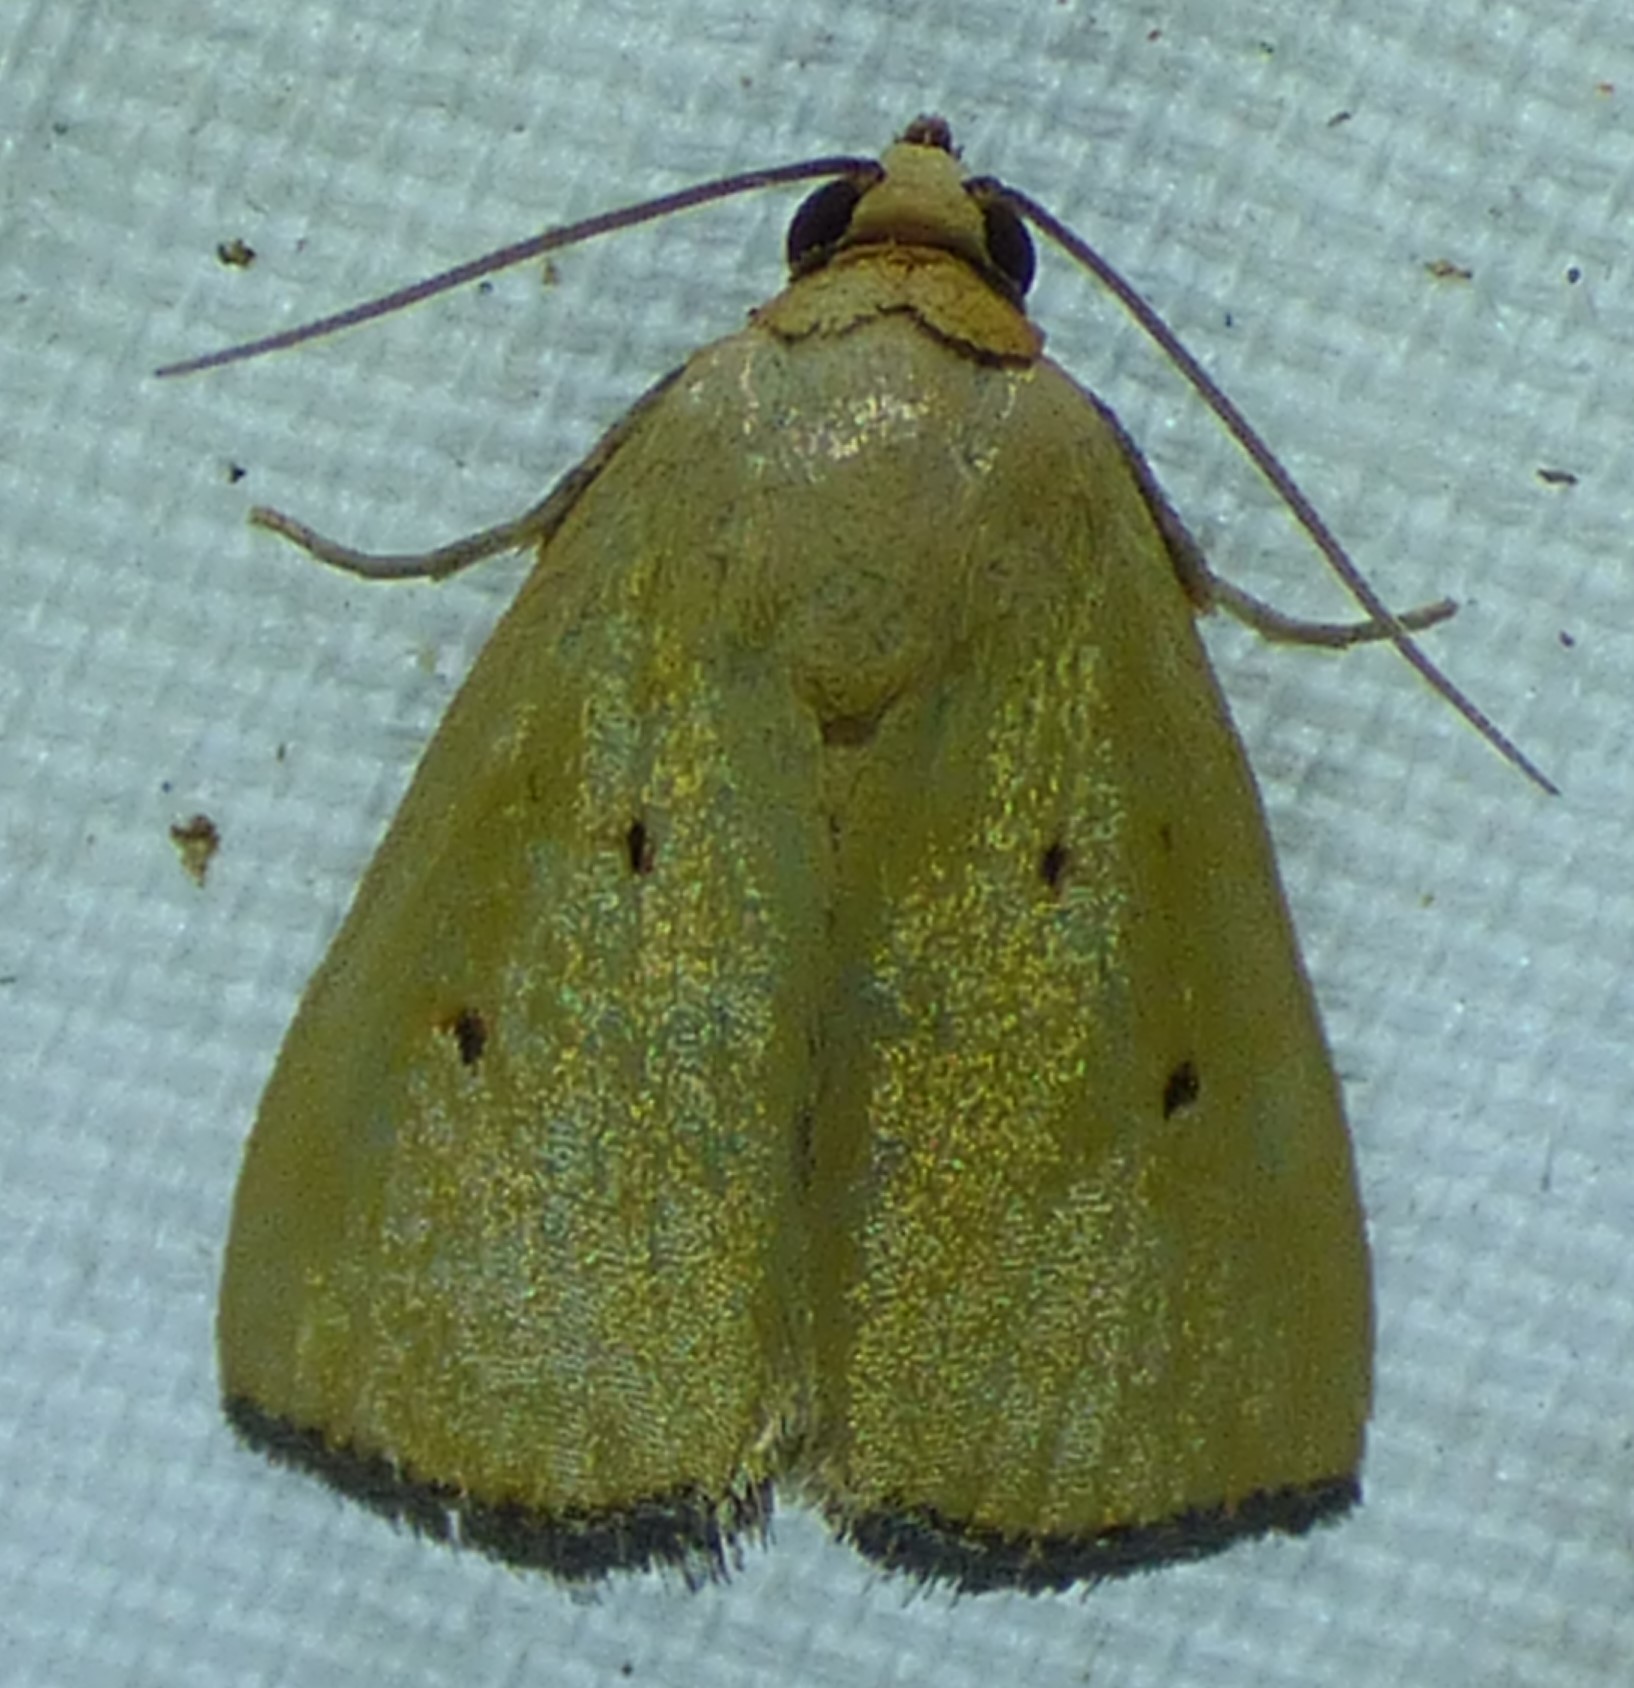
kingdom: Animalia
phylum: Arthropoda
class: Insecta
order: Lepidoptera
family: Noctuidae
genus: Marimatha
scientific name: Marimatha nigrofimbria
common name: Black-bordered lemon moth
